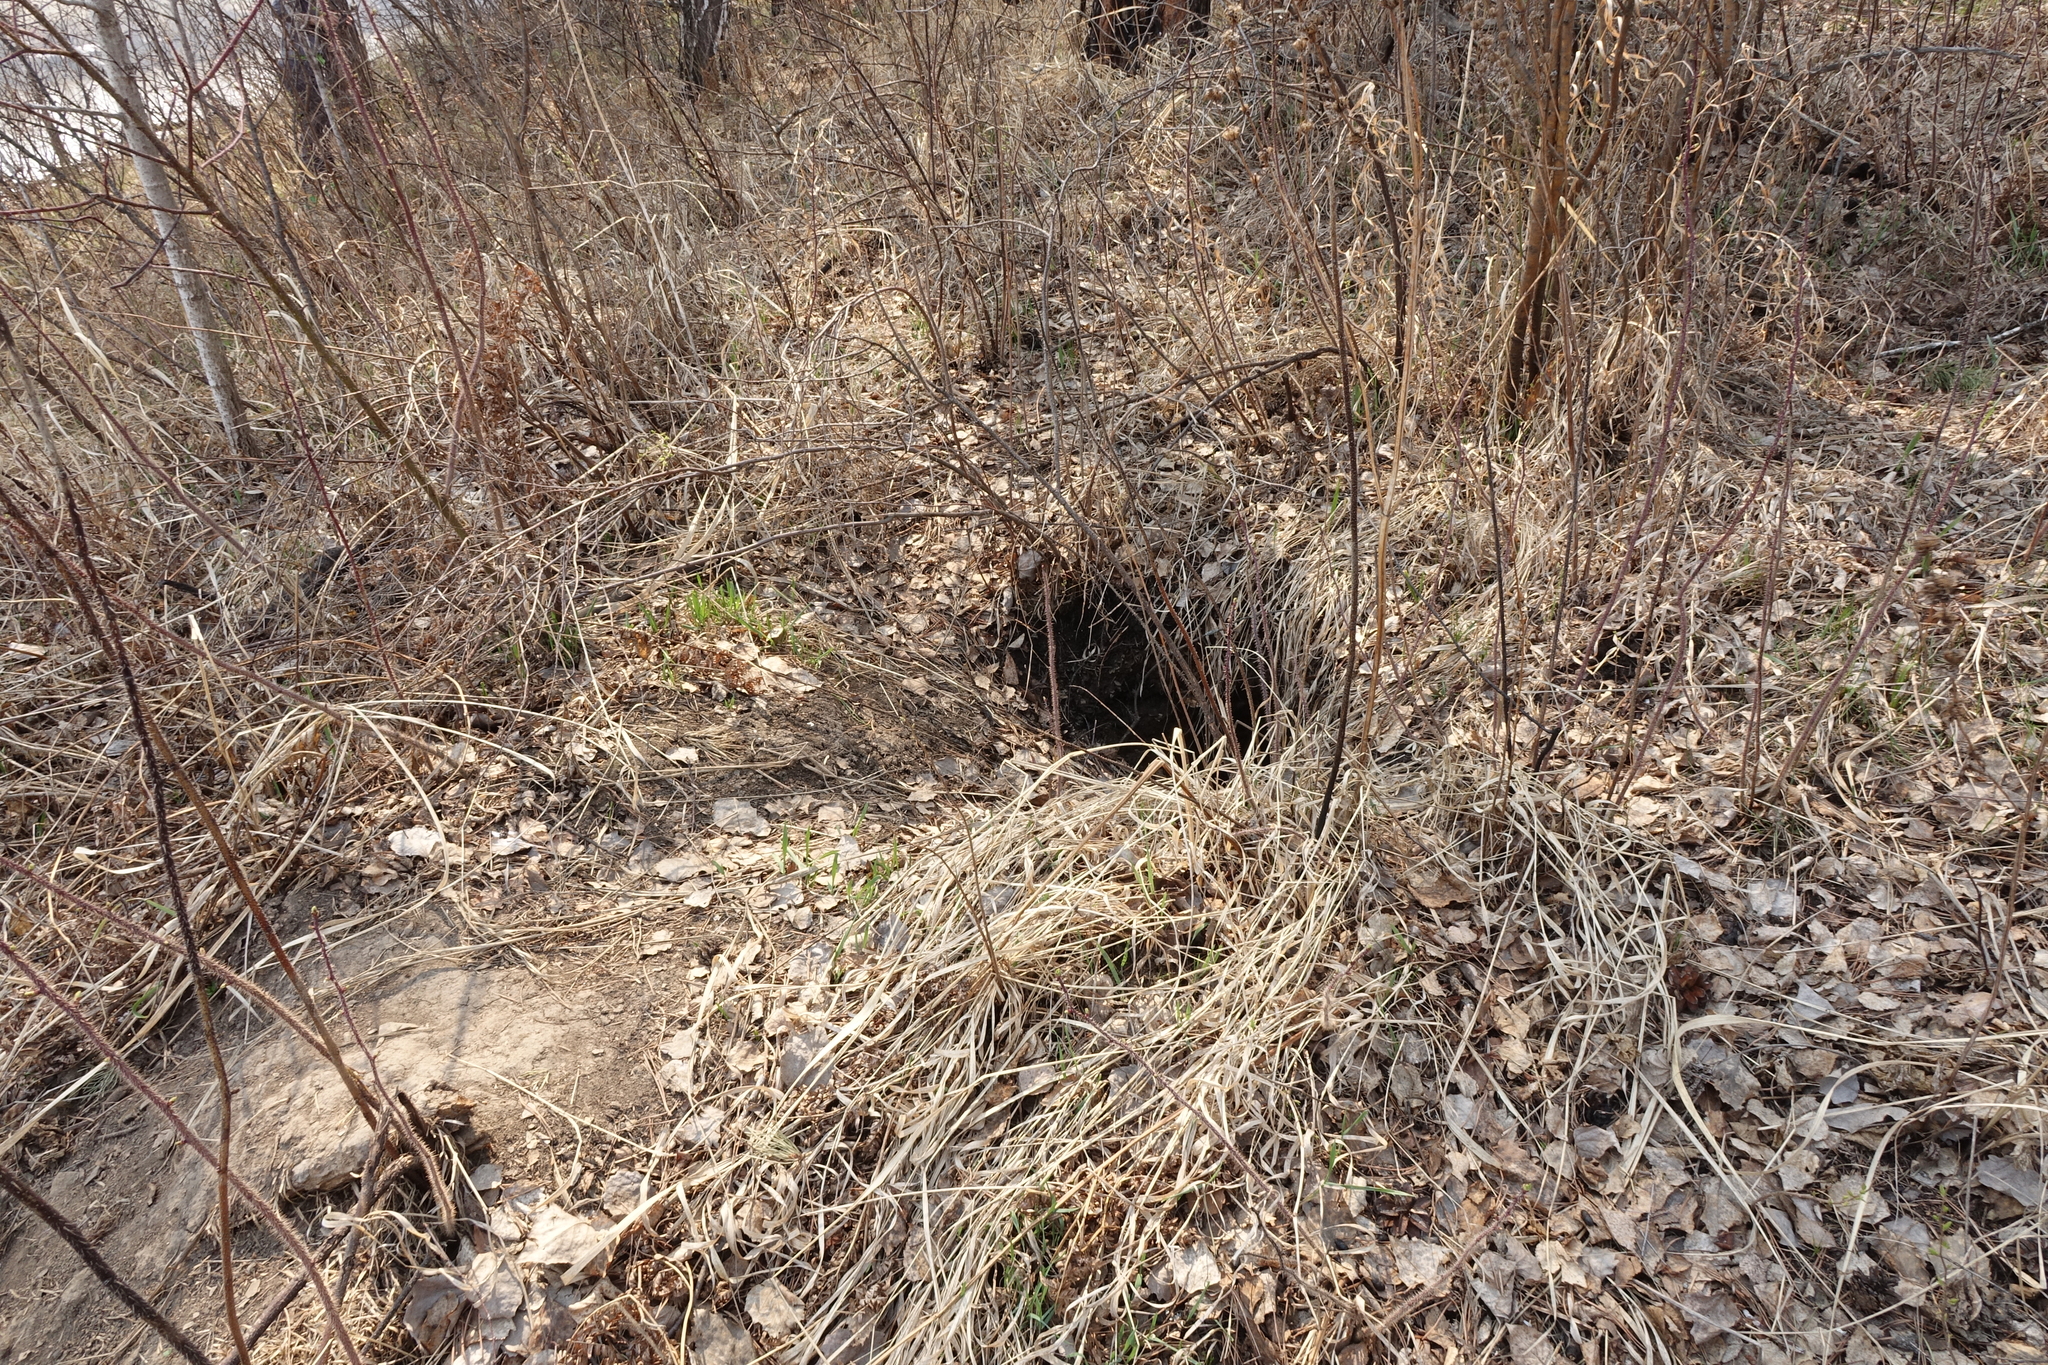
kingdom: Animalia
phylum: Chordata
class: Mammalia
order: Rodentia
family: Sciuridae
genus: Marmota
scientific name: Marmota kastschenkoi
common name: Forest steppe marmot
